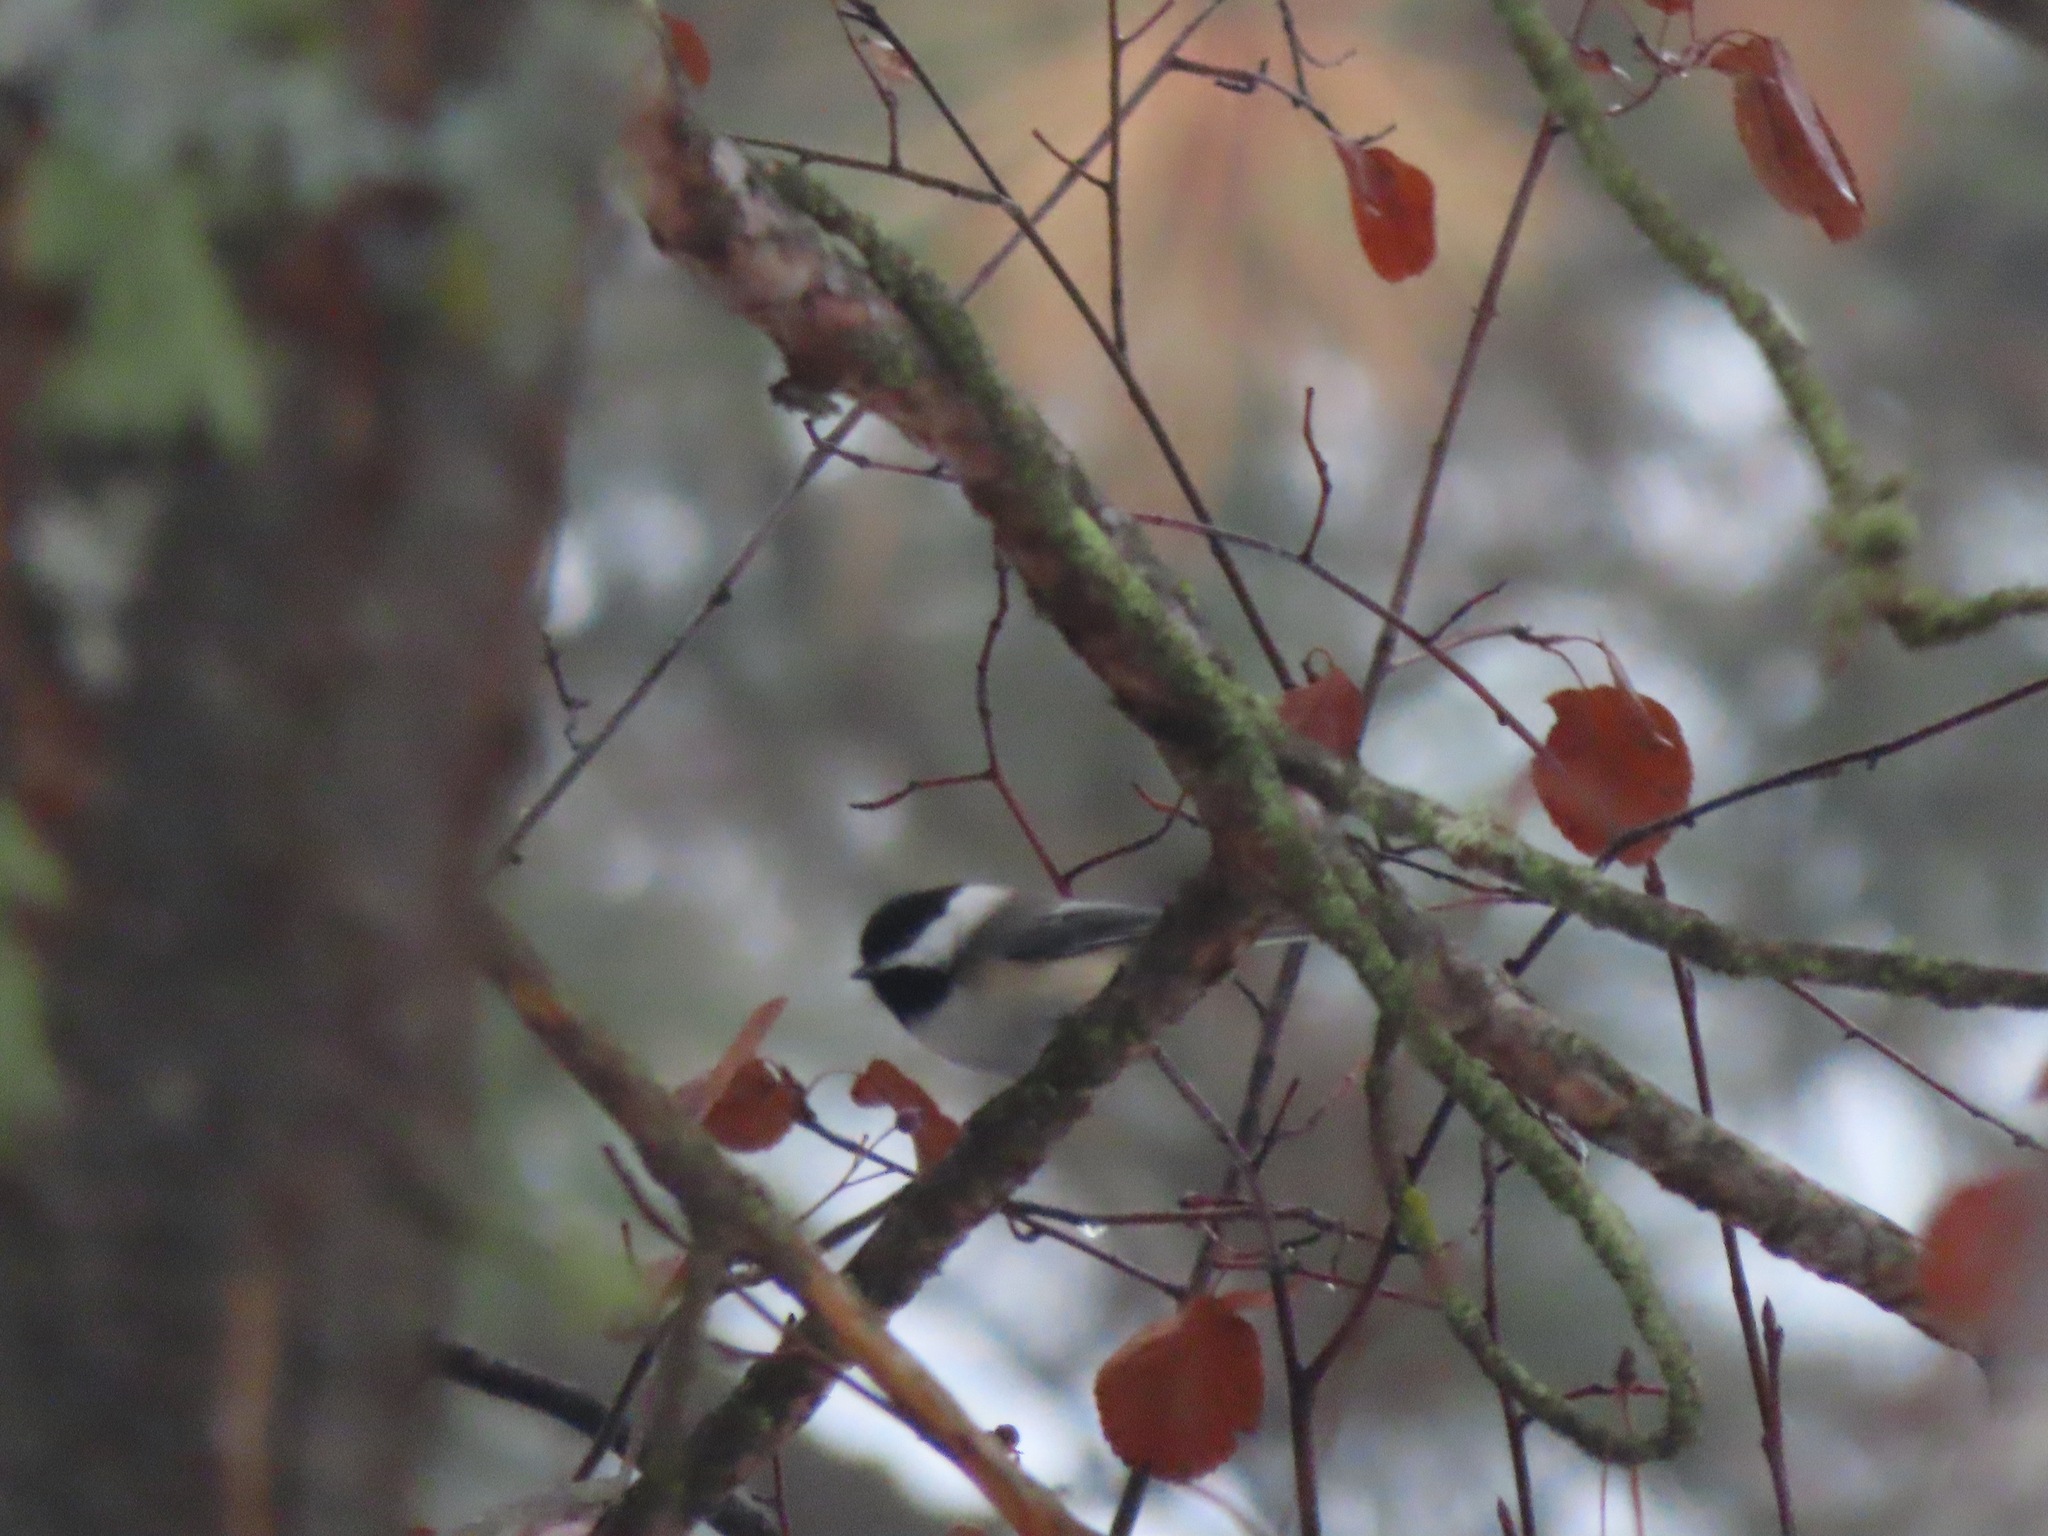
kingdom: Animalia
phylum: Chordata
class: Aves
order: Passeriformes
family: Paridae
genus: Poecile
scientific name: Poecile atricapillus
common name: Black-capped chickadee
